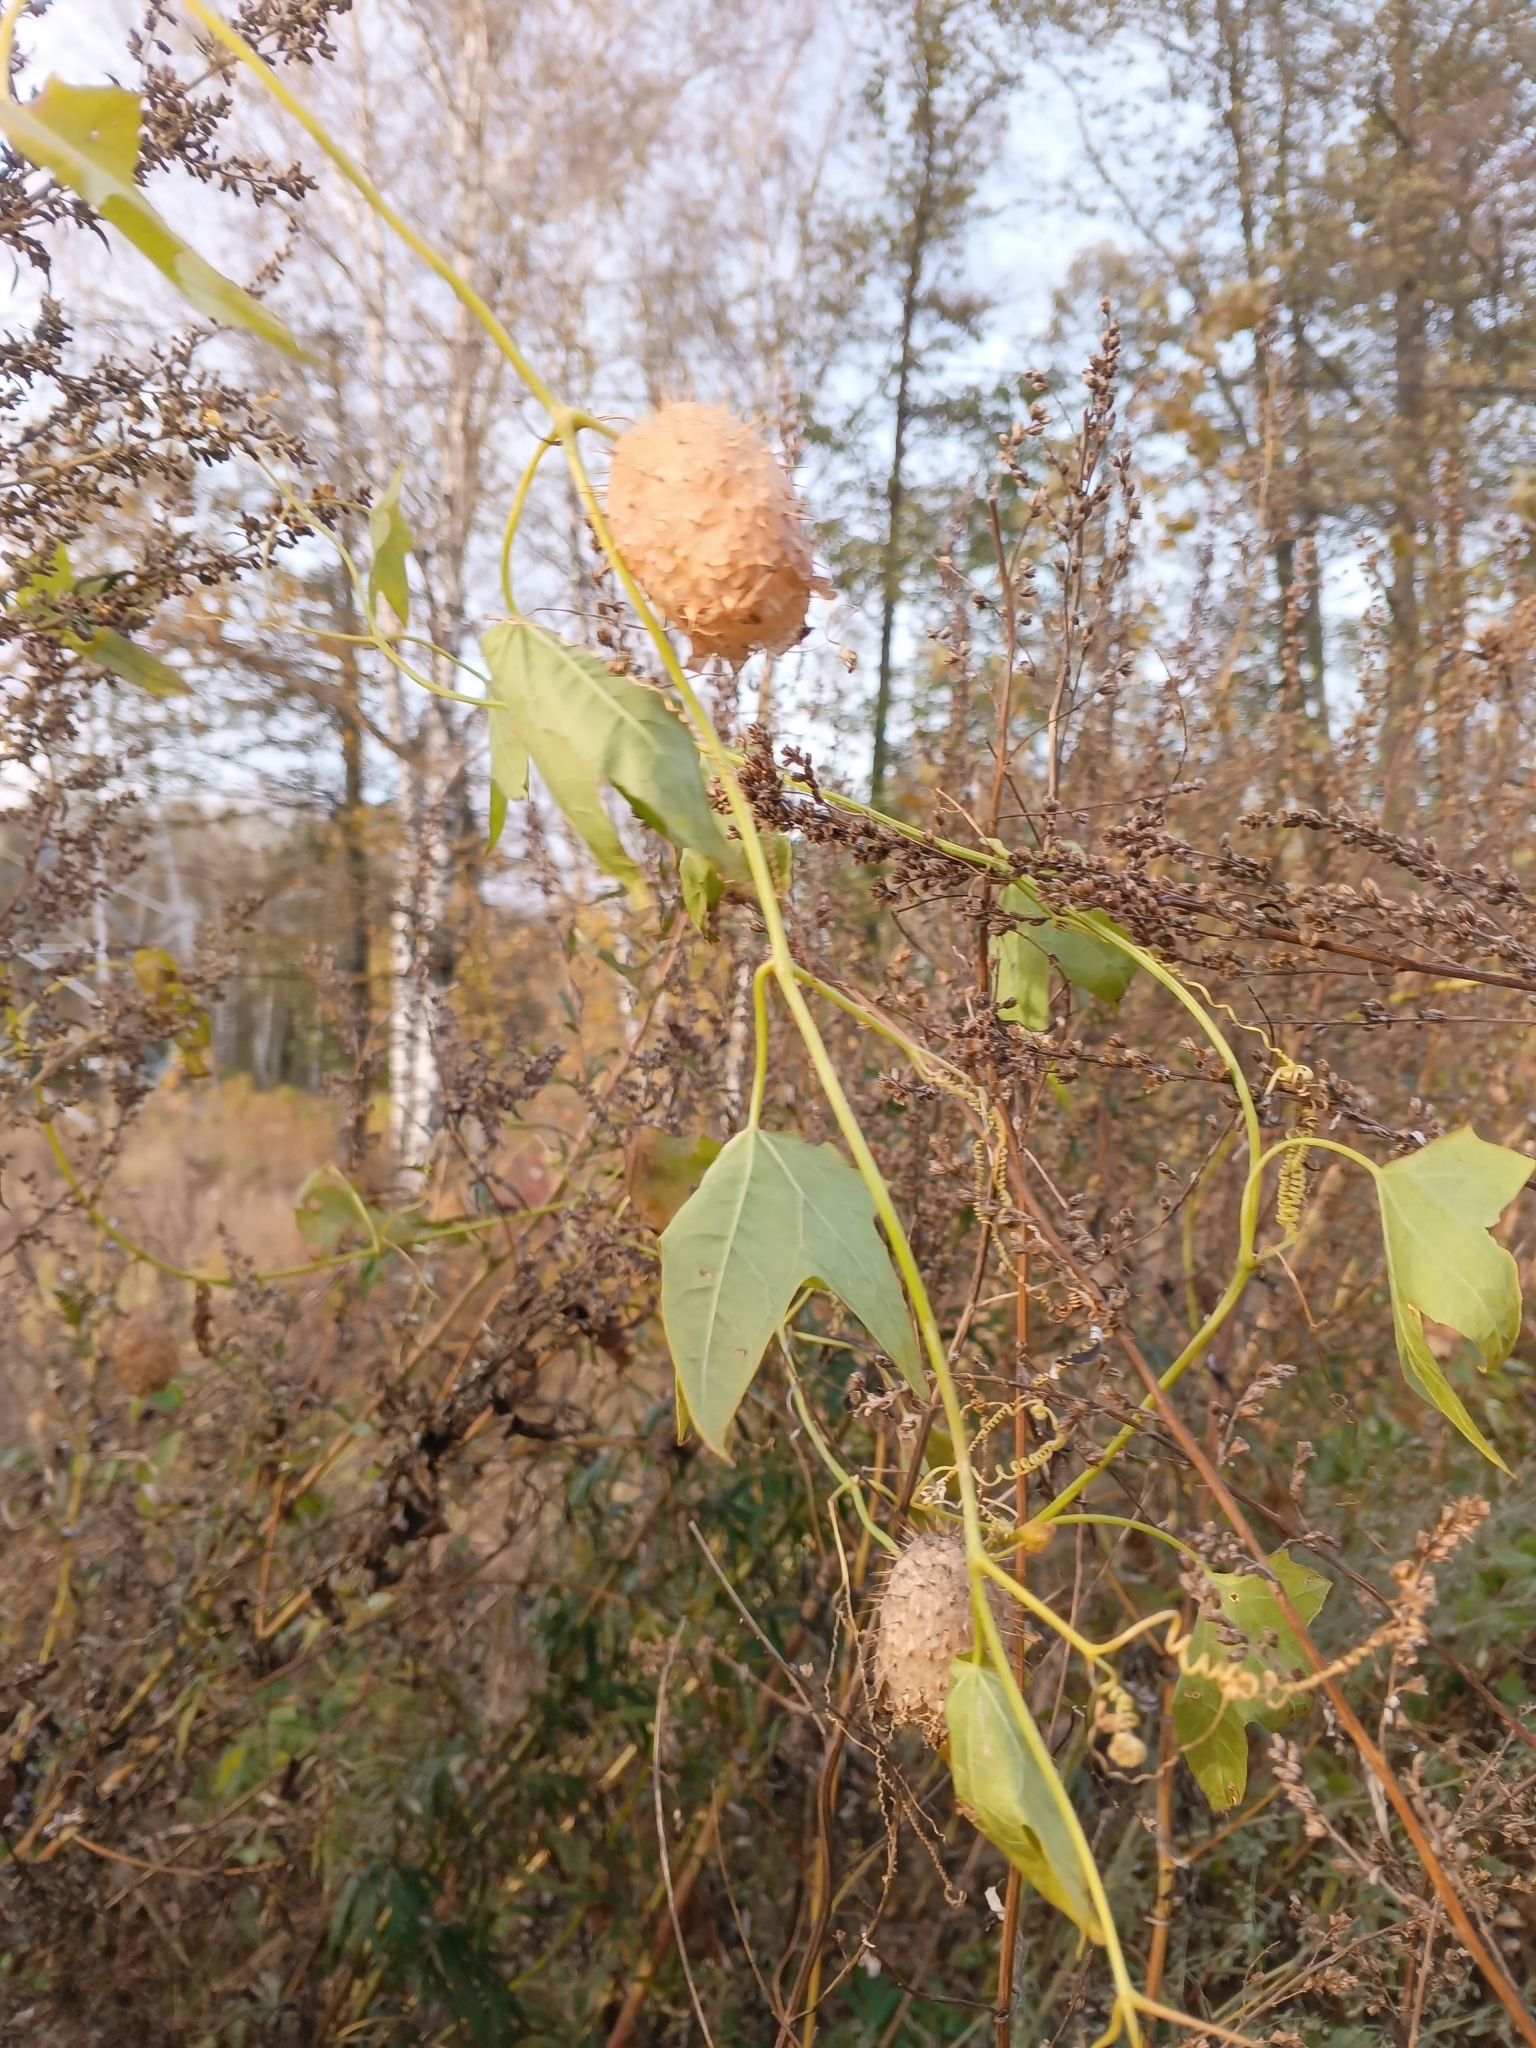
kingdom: Plantae
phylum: Tracheophyta
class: Magnoliopsida
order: Cucurbitales
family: Cucurbitaceae
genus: Echinocystis
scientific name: Echinocystis lobata
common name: Wild cucumber
